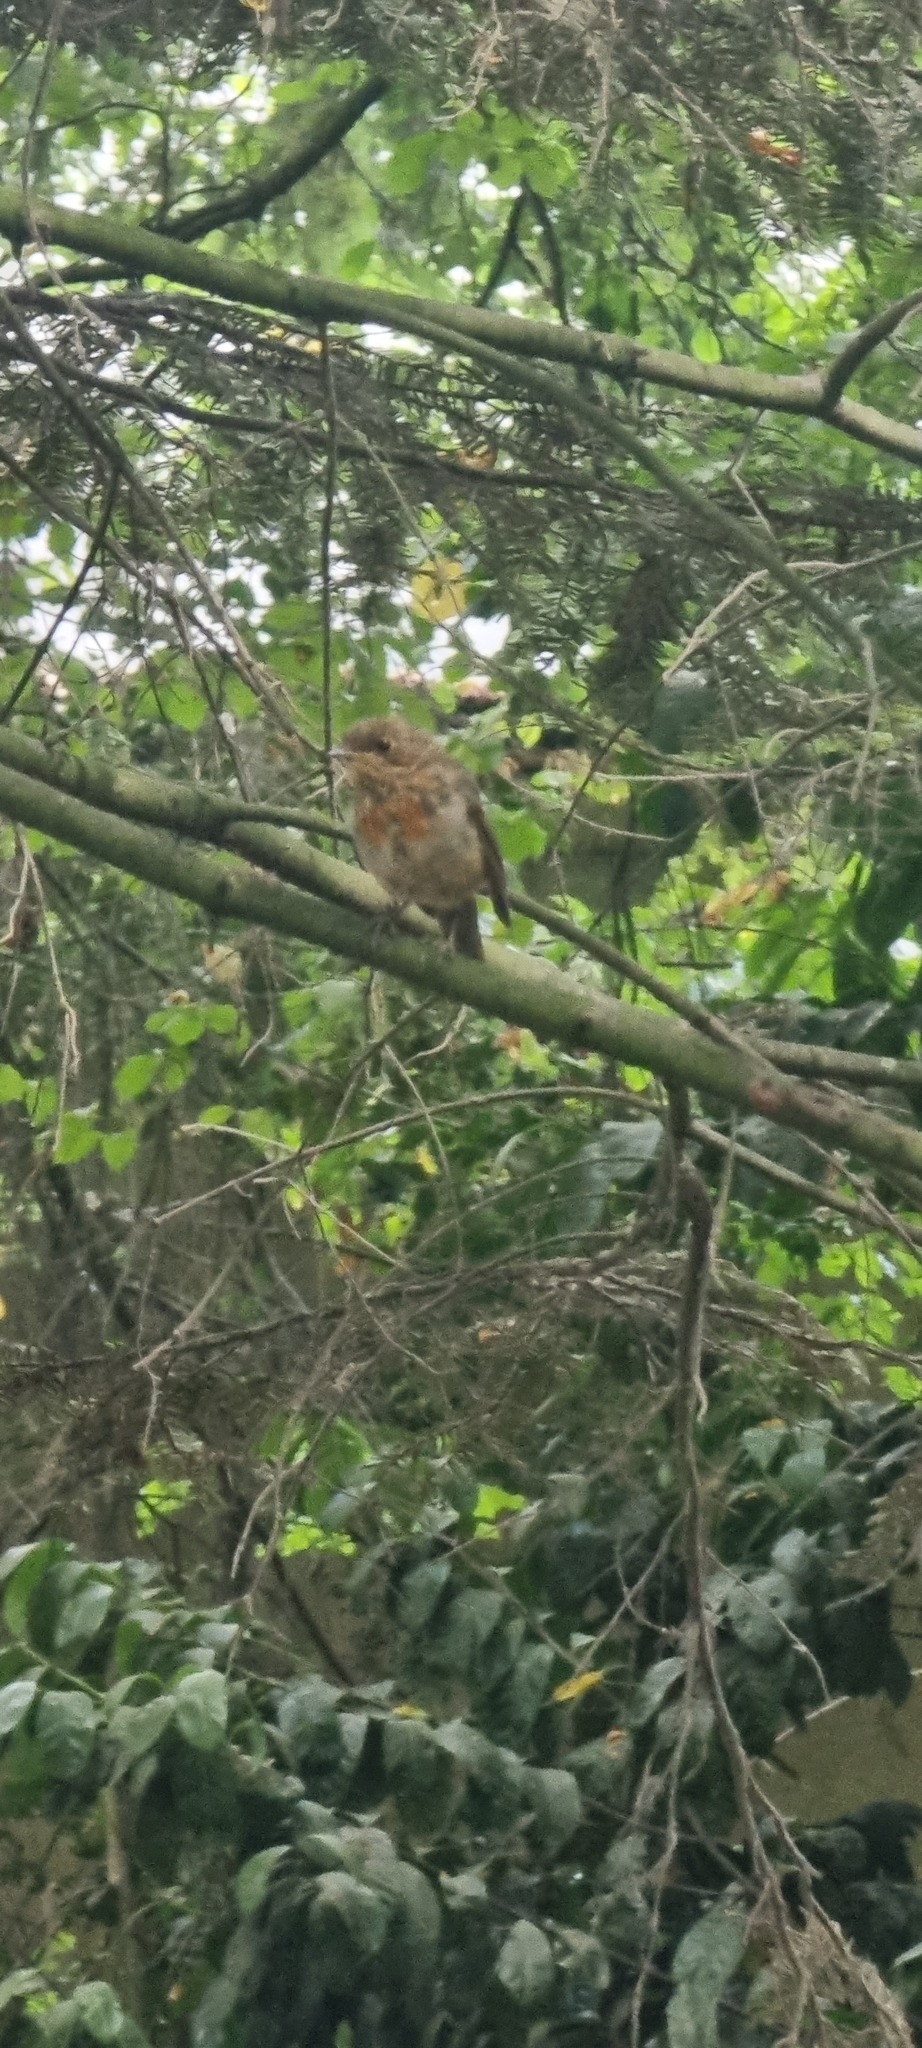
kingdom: Animalia
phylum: Chordata
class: Aves
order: Passeriformes
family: Muscicapidae
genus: Erithacus
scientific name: Erithacus rubecula
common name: European robin
